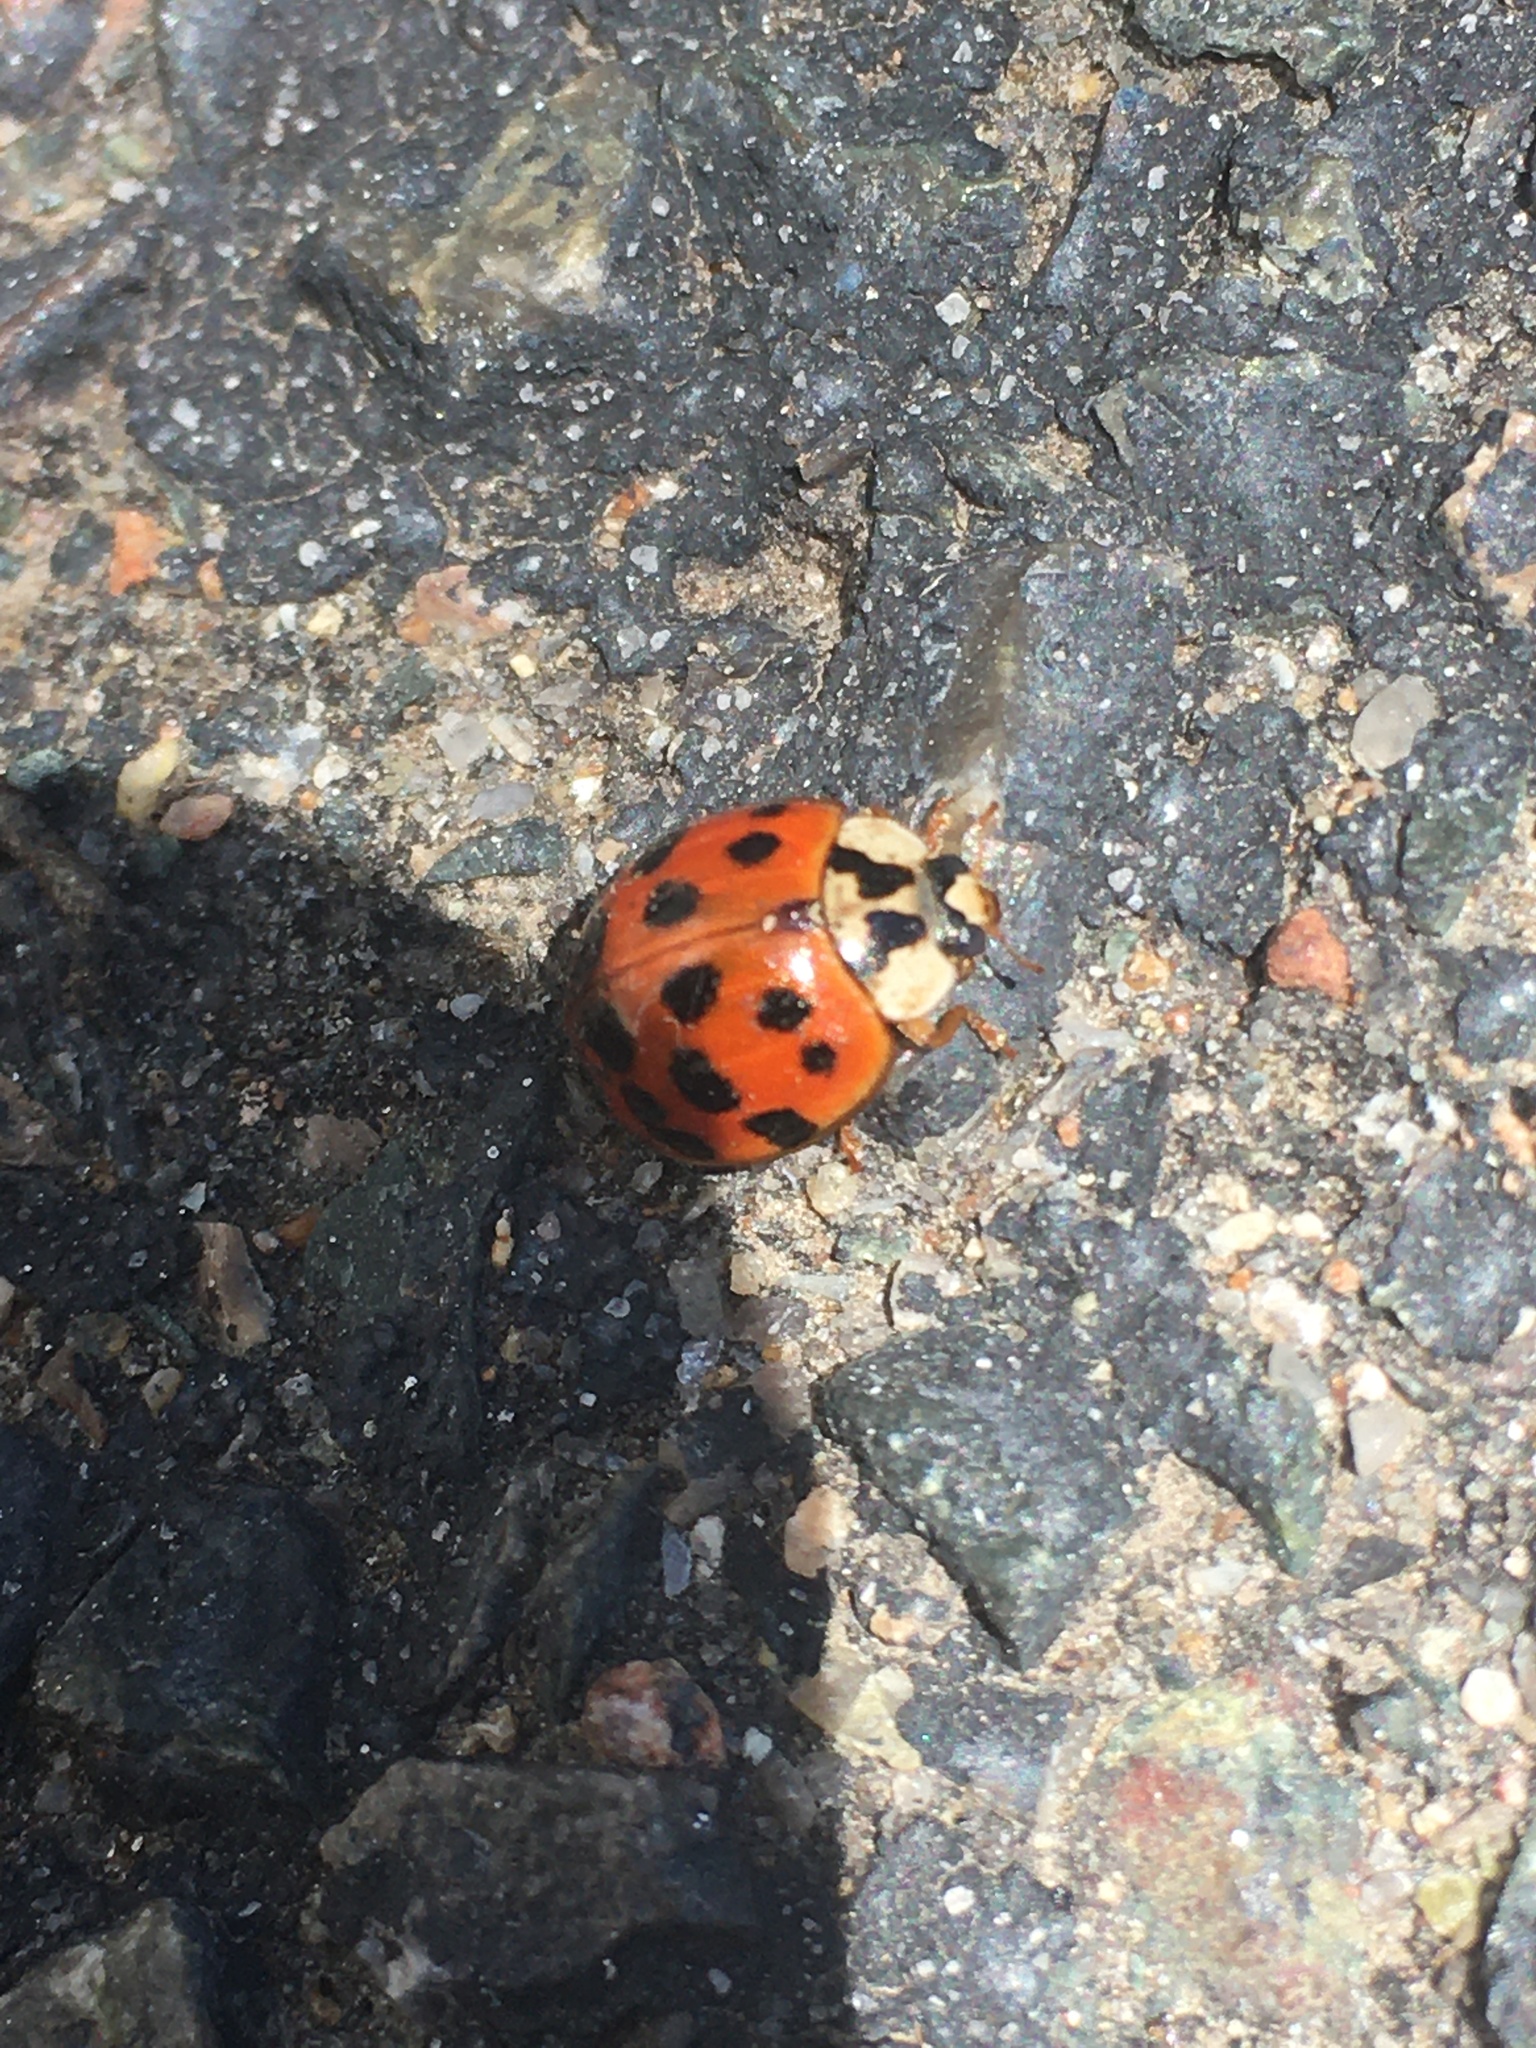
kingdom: Animalia
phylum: Arthropoda
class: Insecta
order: Coleoptera
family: Coccinellidae
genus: Harmonia
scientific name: Harmonia axyridis
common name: Harlequin ladybird
